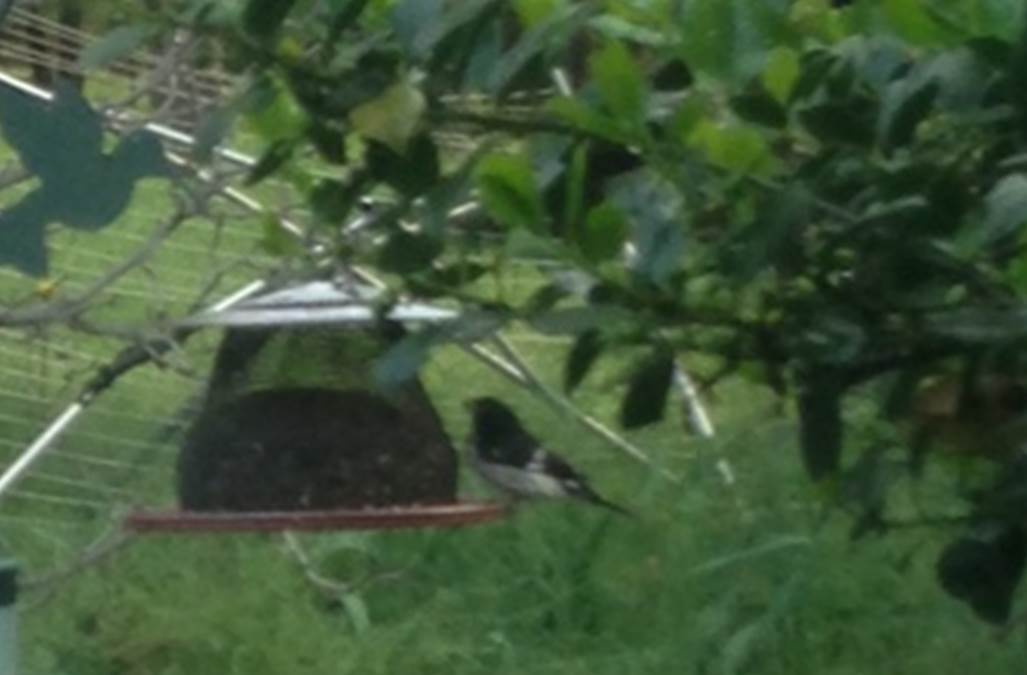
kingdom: Animalia
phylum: Chordata
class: Aves
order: Passeriformes
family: Cardinalidae
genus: Pheucticus
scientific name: Pheucticus ludovicianus
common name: Rose-breasted grosbeak
